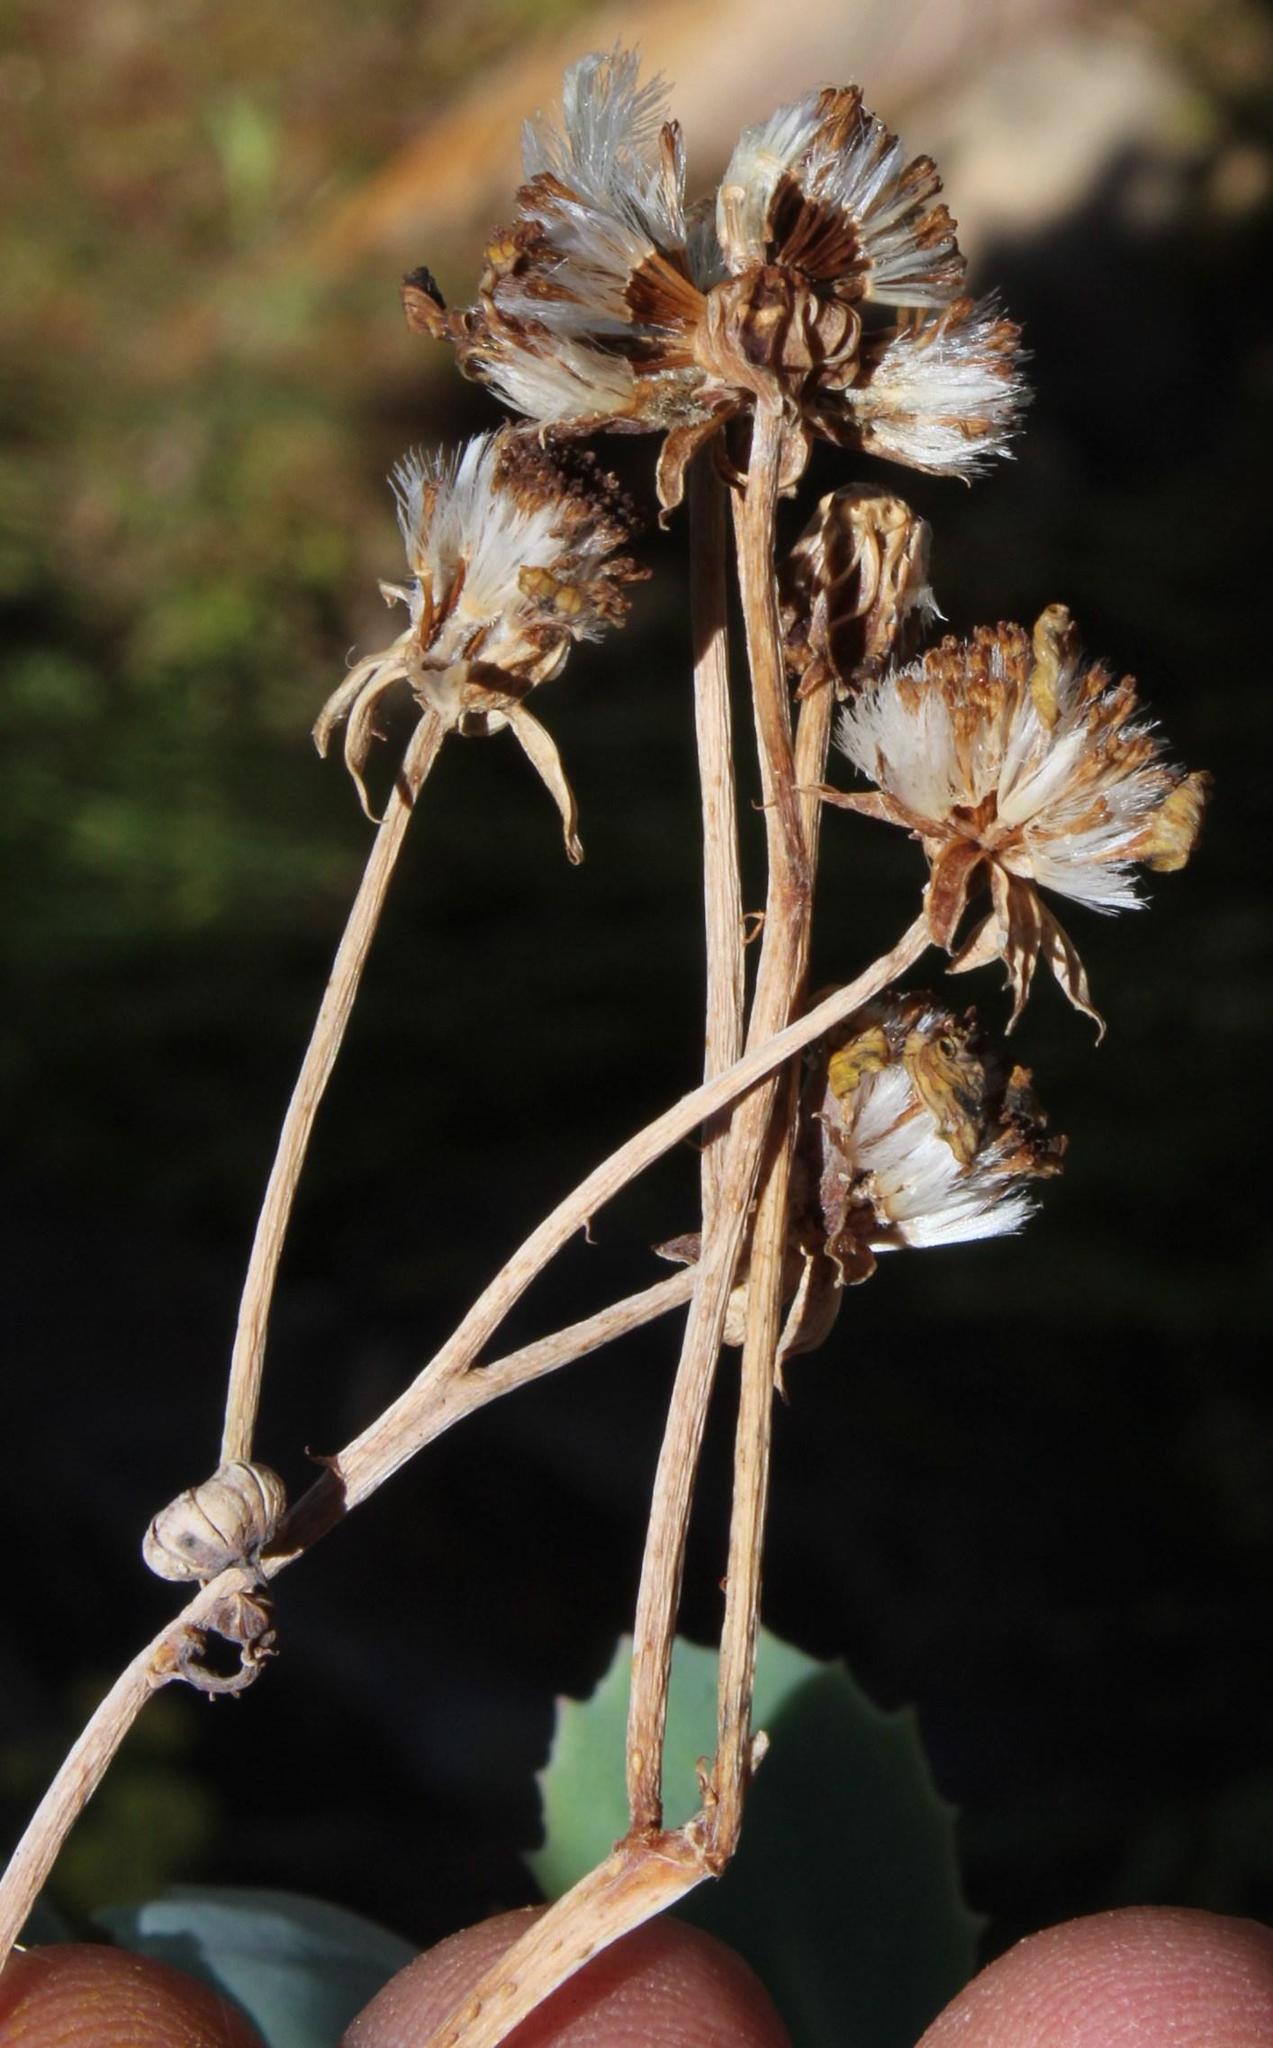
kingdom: Plantae
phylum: Tracheophyta
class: Magnoliopsida
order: Asterales
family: Asteraceae
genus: Othonna
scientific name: Othonna dentata
